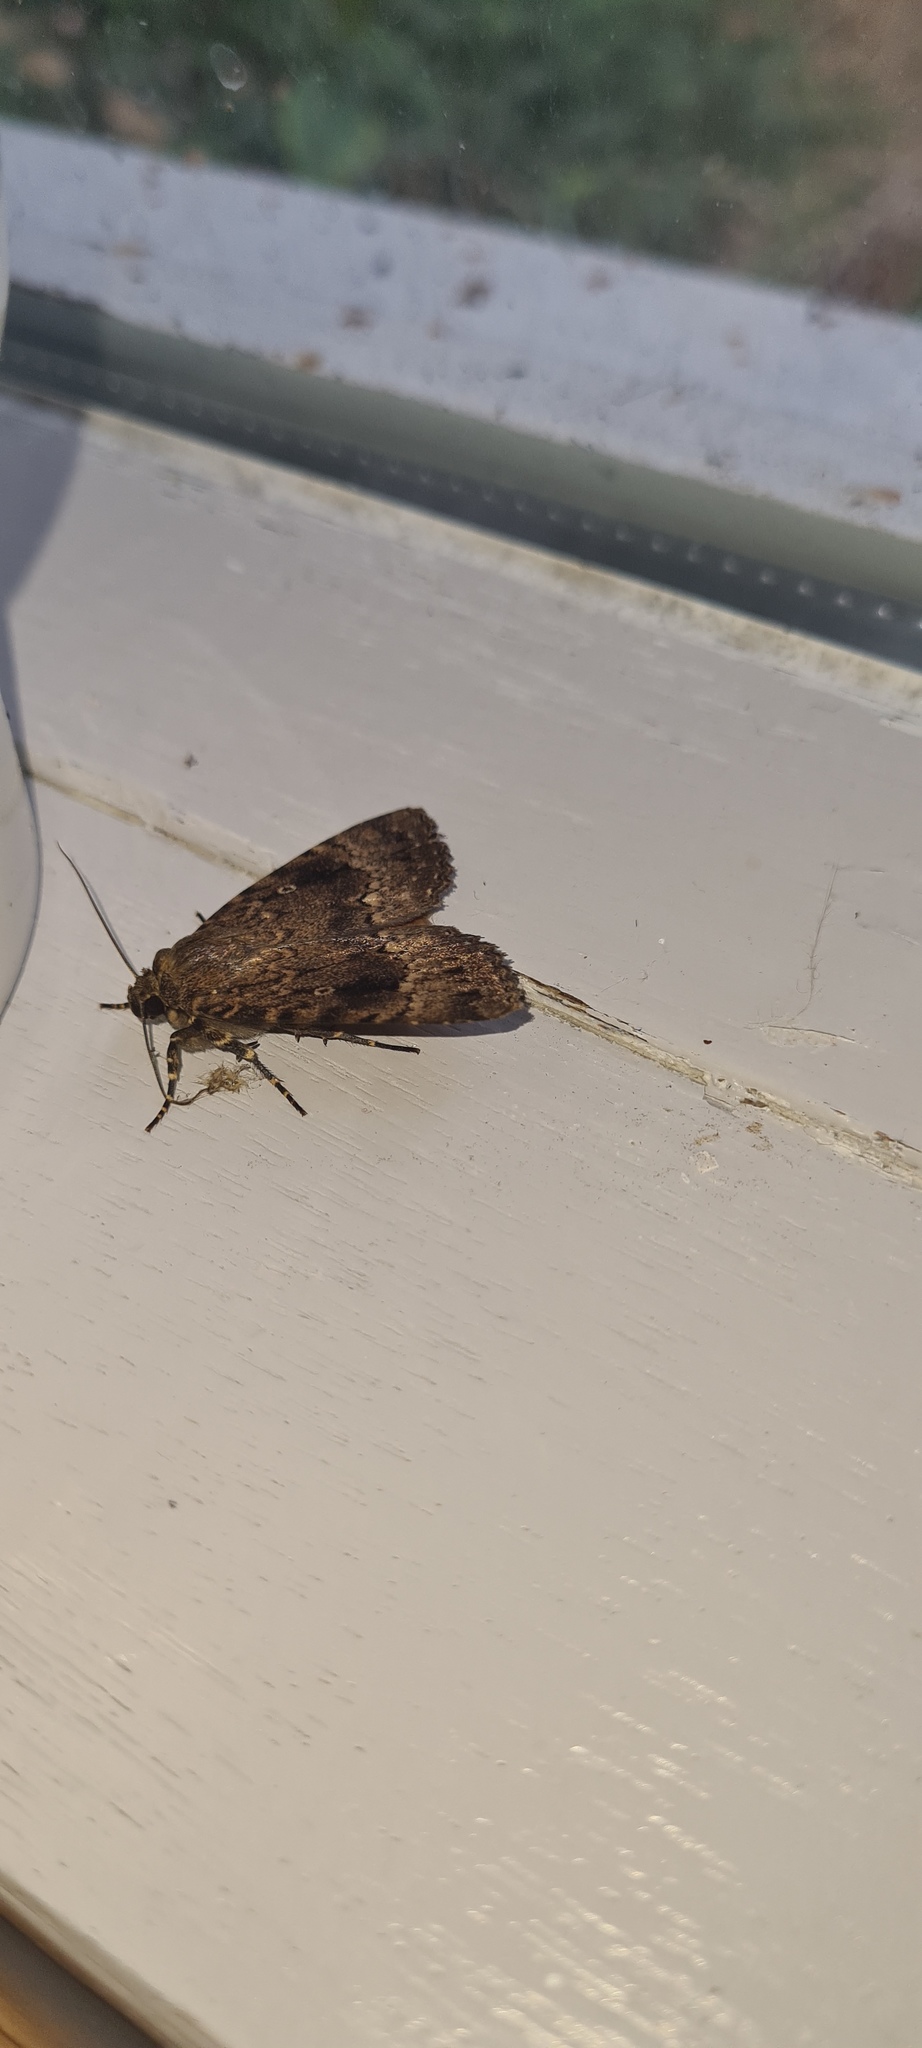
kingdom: Animalia
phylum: Arthropoda
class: Insecta
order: Lepidoptera
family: Noctuidae
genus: Amphipyra
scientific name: Amphipyra pyramidea
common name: Copper underwing
